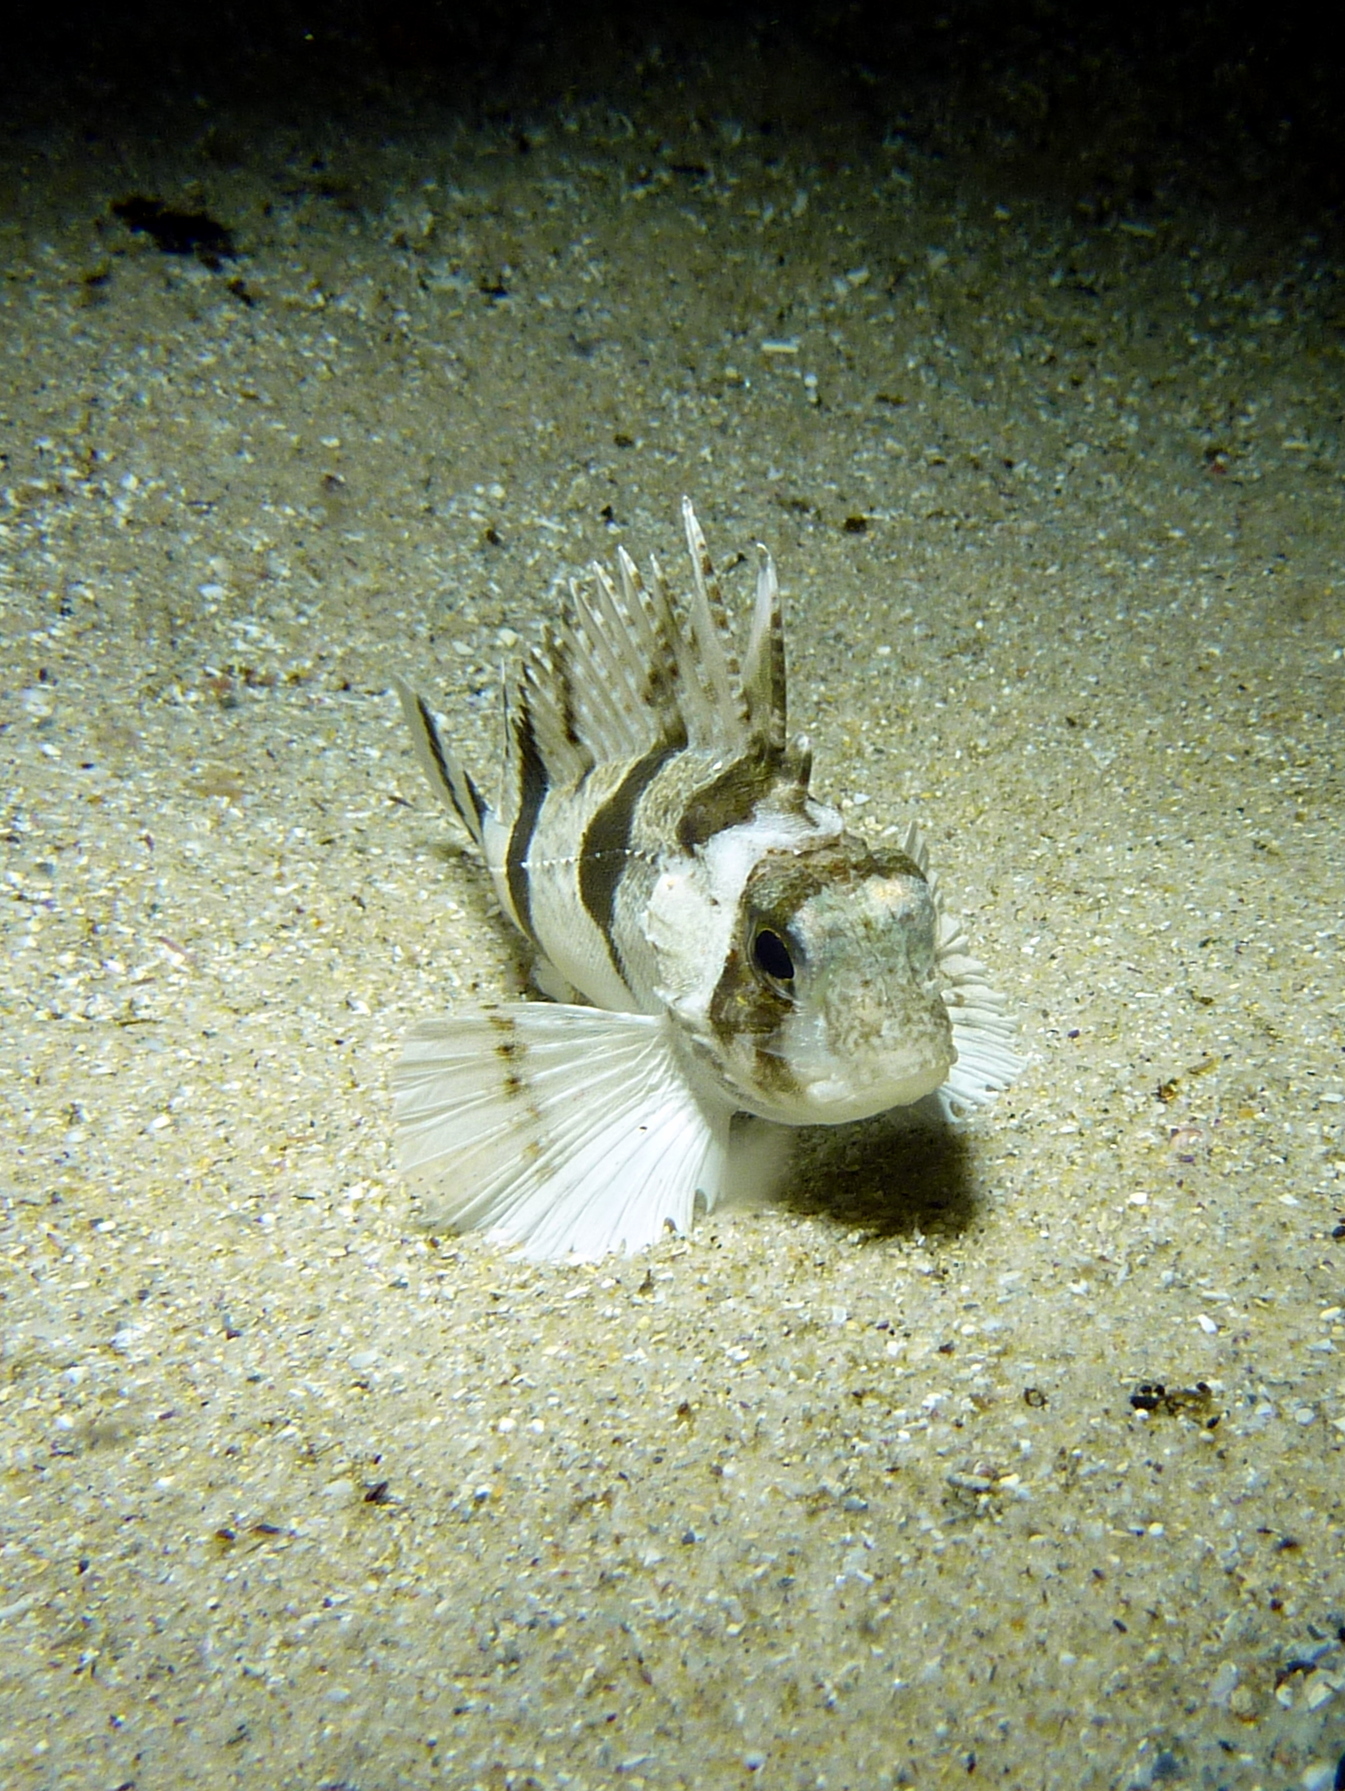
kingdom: Animalia
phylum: Chordata
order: Scorpaeniformes
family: Tetrarogidae
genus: Centropogon
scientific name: Centropogon australis
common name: Fortescue
